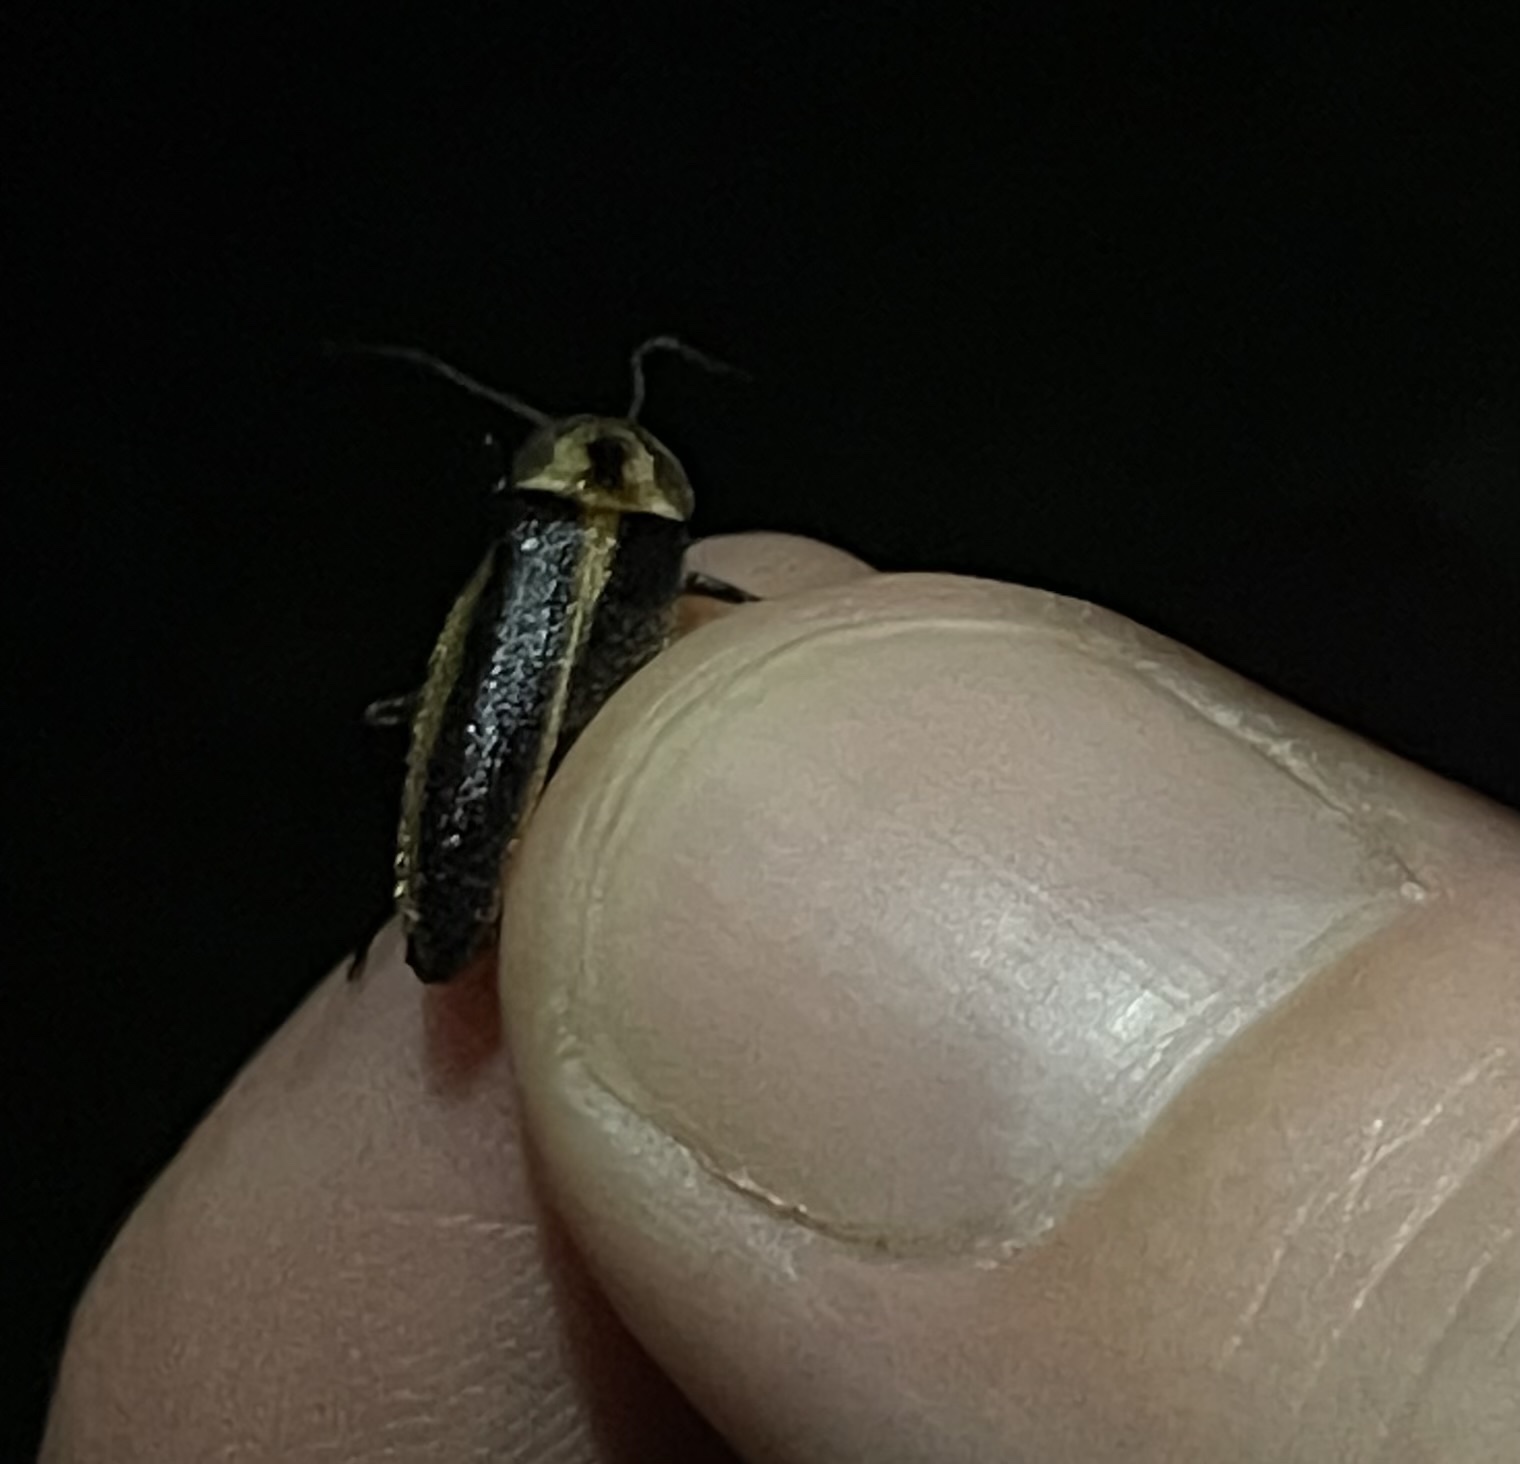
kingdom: Animalia
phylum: Arthropoda
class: Insecta
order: Coleoptera
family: Lampyridae
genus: Photuris
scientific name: Photuris frontalis
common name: Snappy single sync
